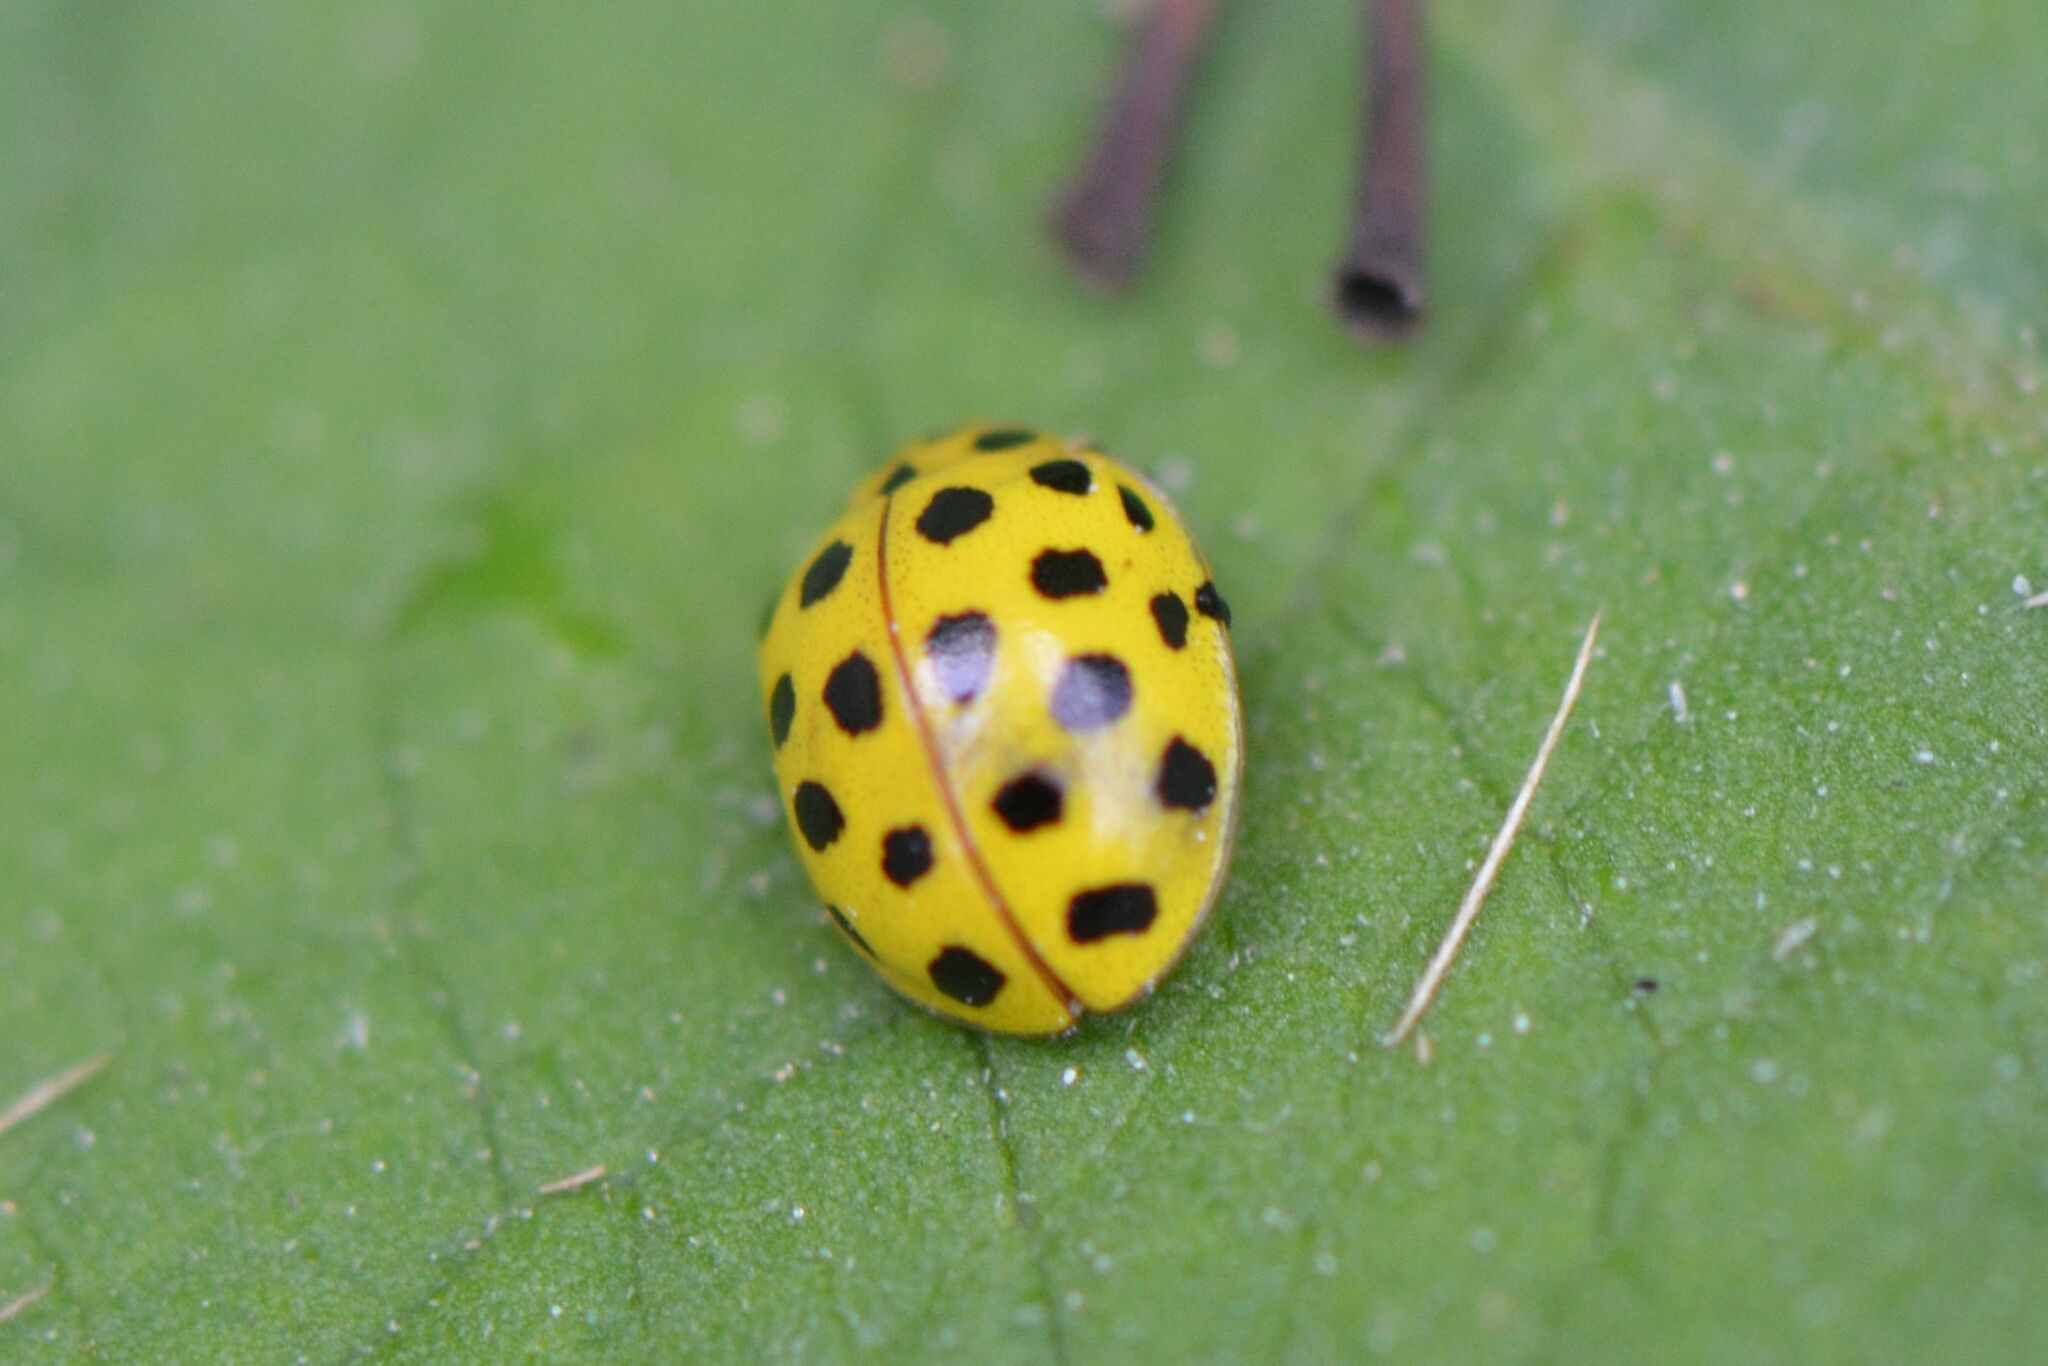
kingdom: Animalia
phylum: Arthropoda
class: Insecta
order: Coleoptera
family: Coccinellidae
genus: Psyllobora
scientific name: Psyllobora vigintiduopunctata
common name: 22-spot ladybird
